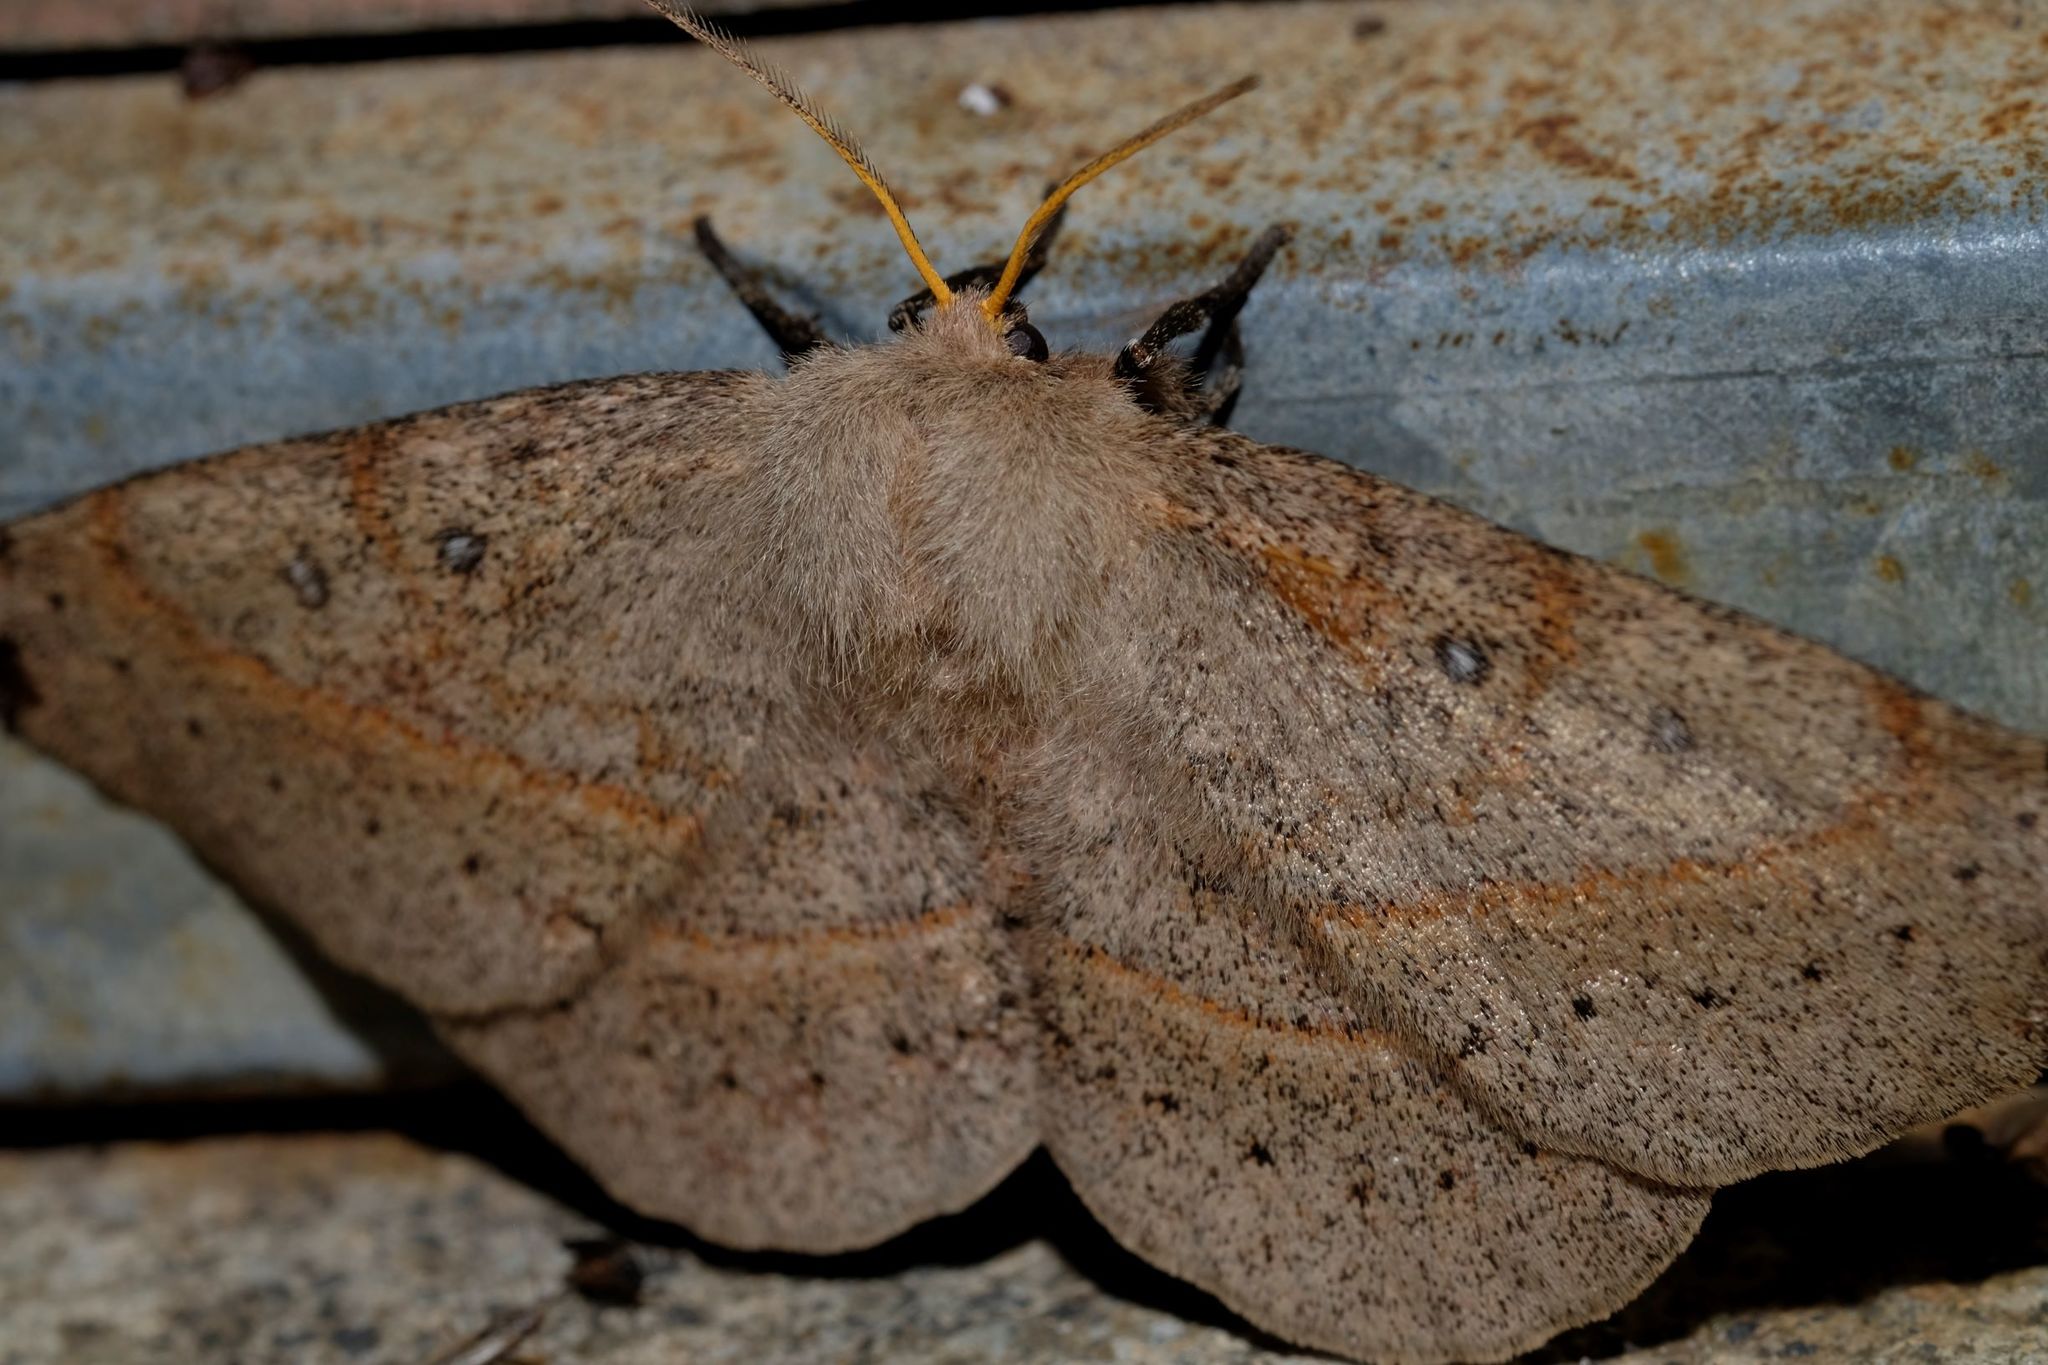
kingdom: Animalia
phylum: Arthropoda
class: Insecta
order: Lepidoptera
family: Anthelidae
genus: Anthela
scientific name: Anthela acuta
